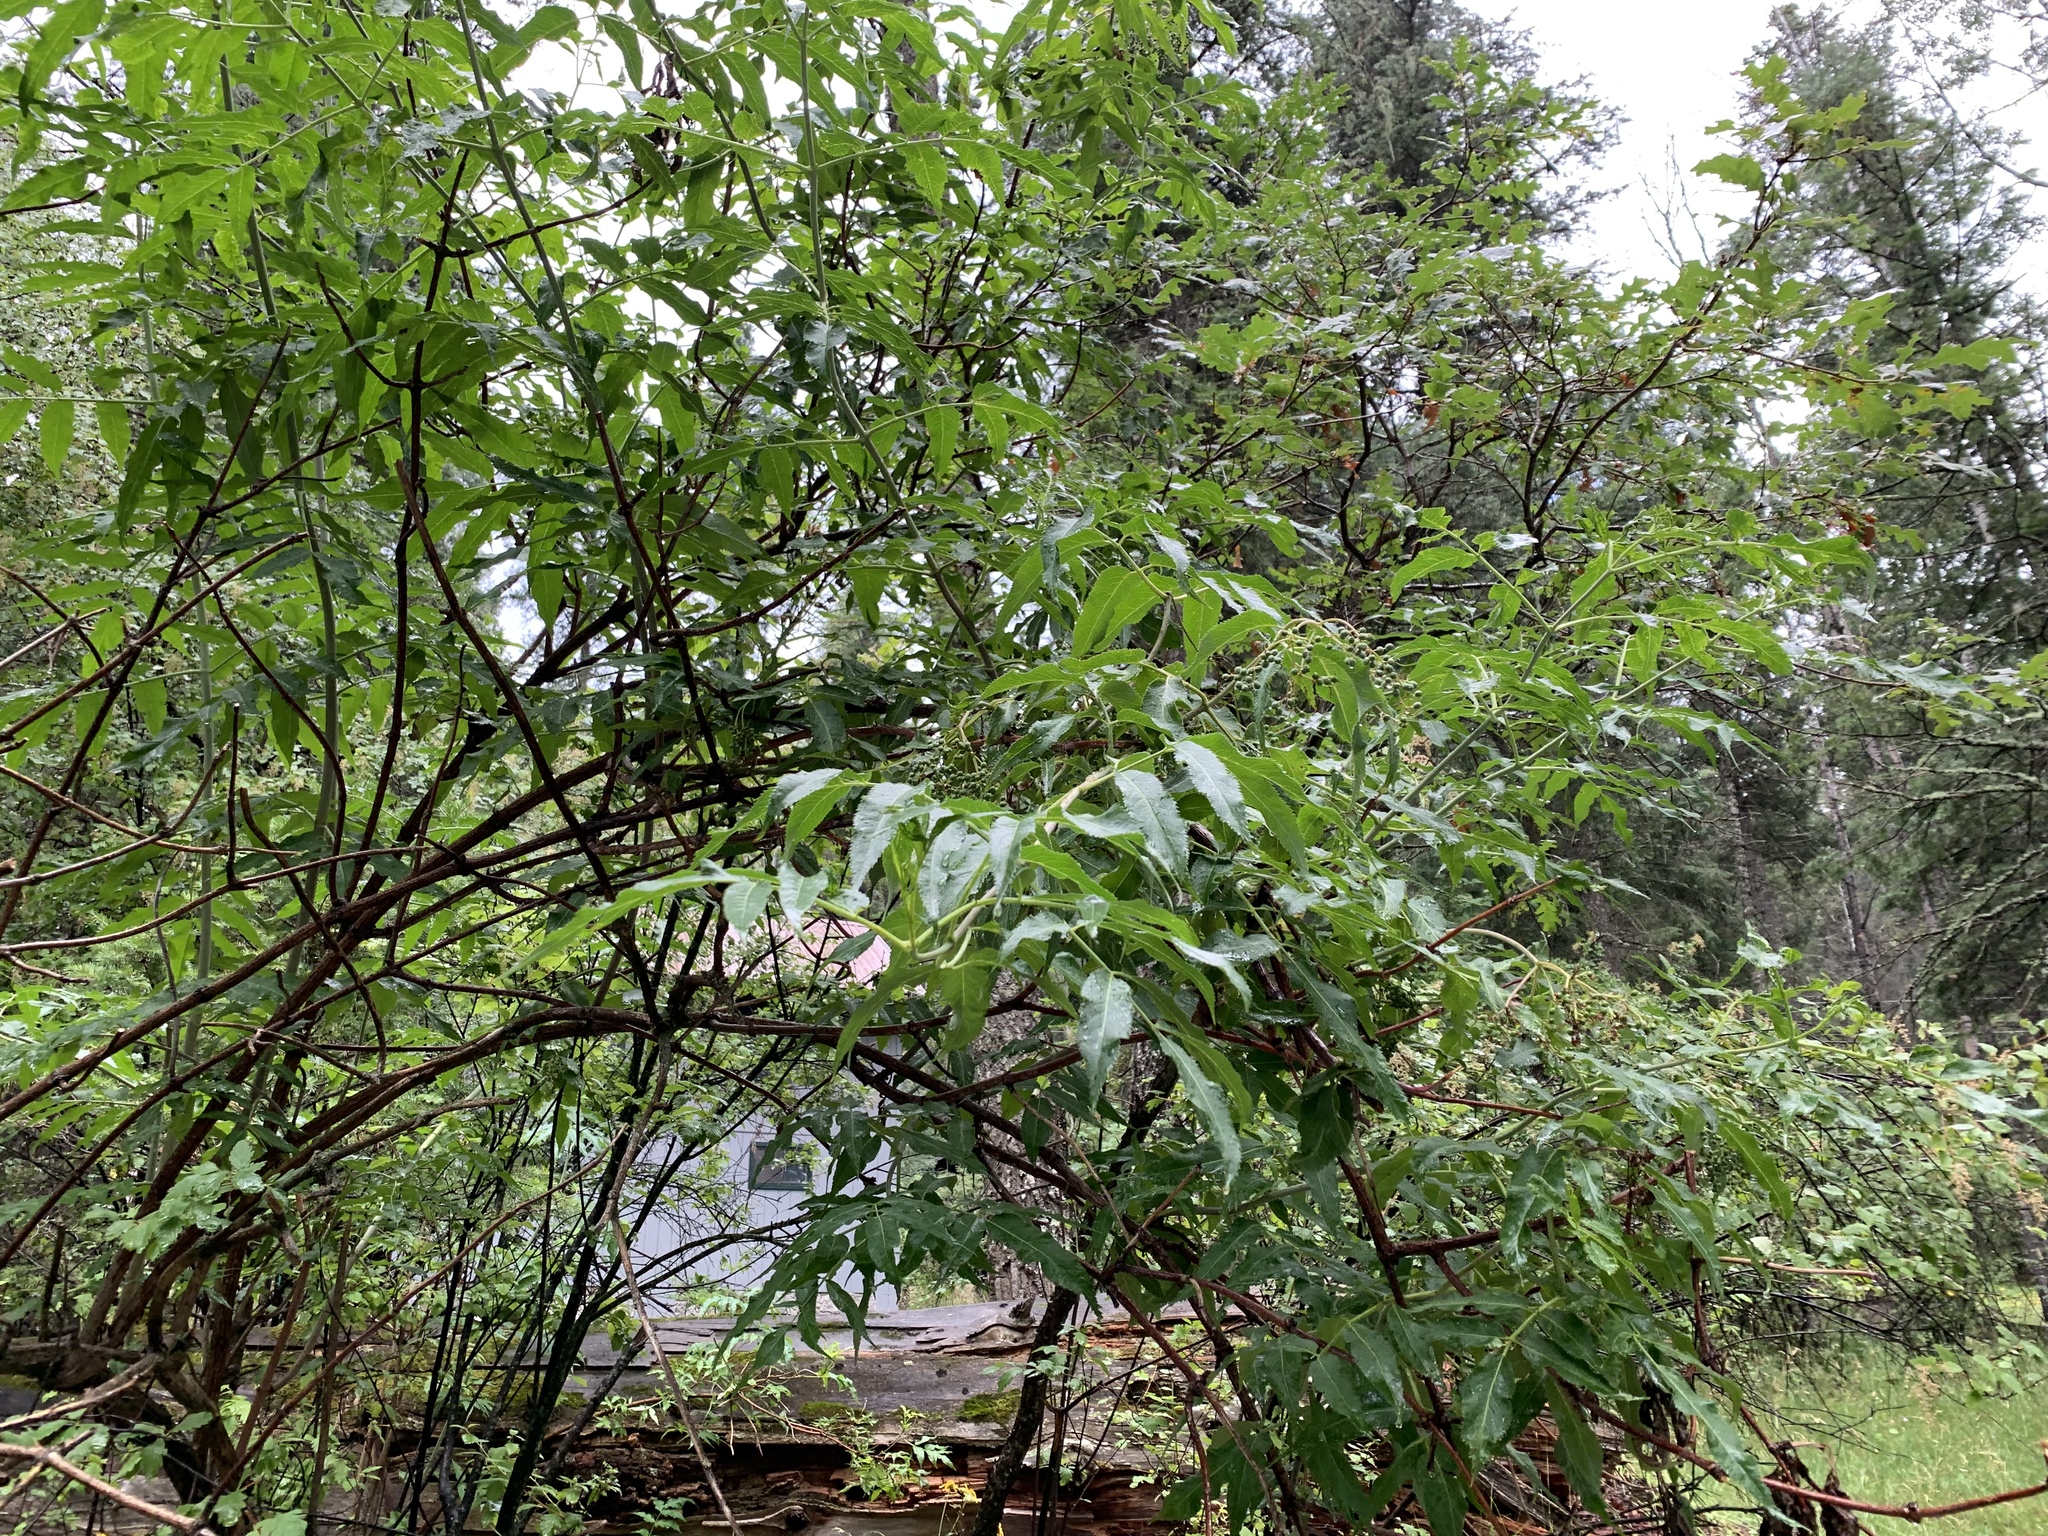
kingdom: Plantae
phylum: Tracheophyta
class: Magnoliopsida
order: Dipsacales
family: Viburnaceae
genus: Sambucus
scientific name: Sambucus cerulea
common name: Blue elder
